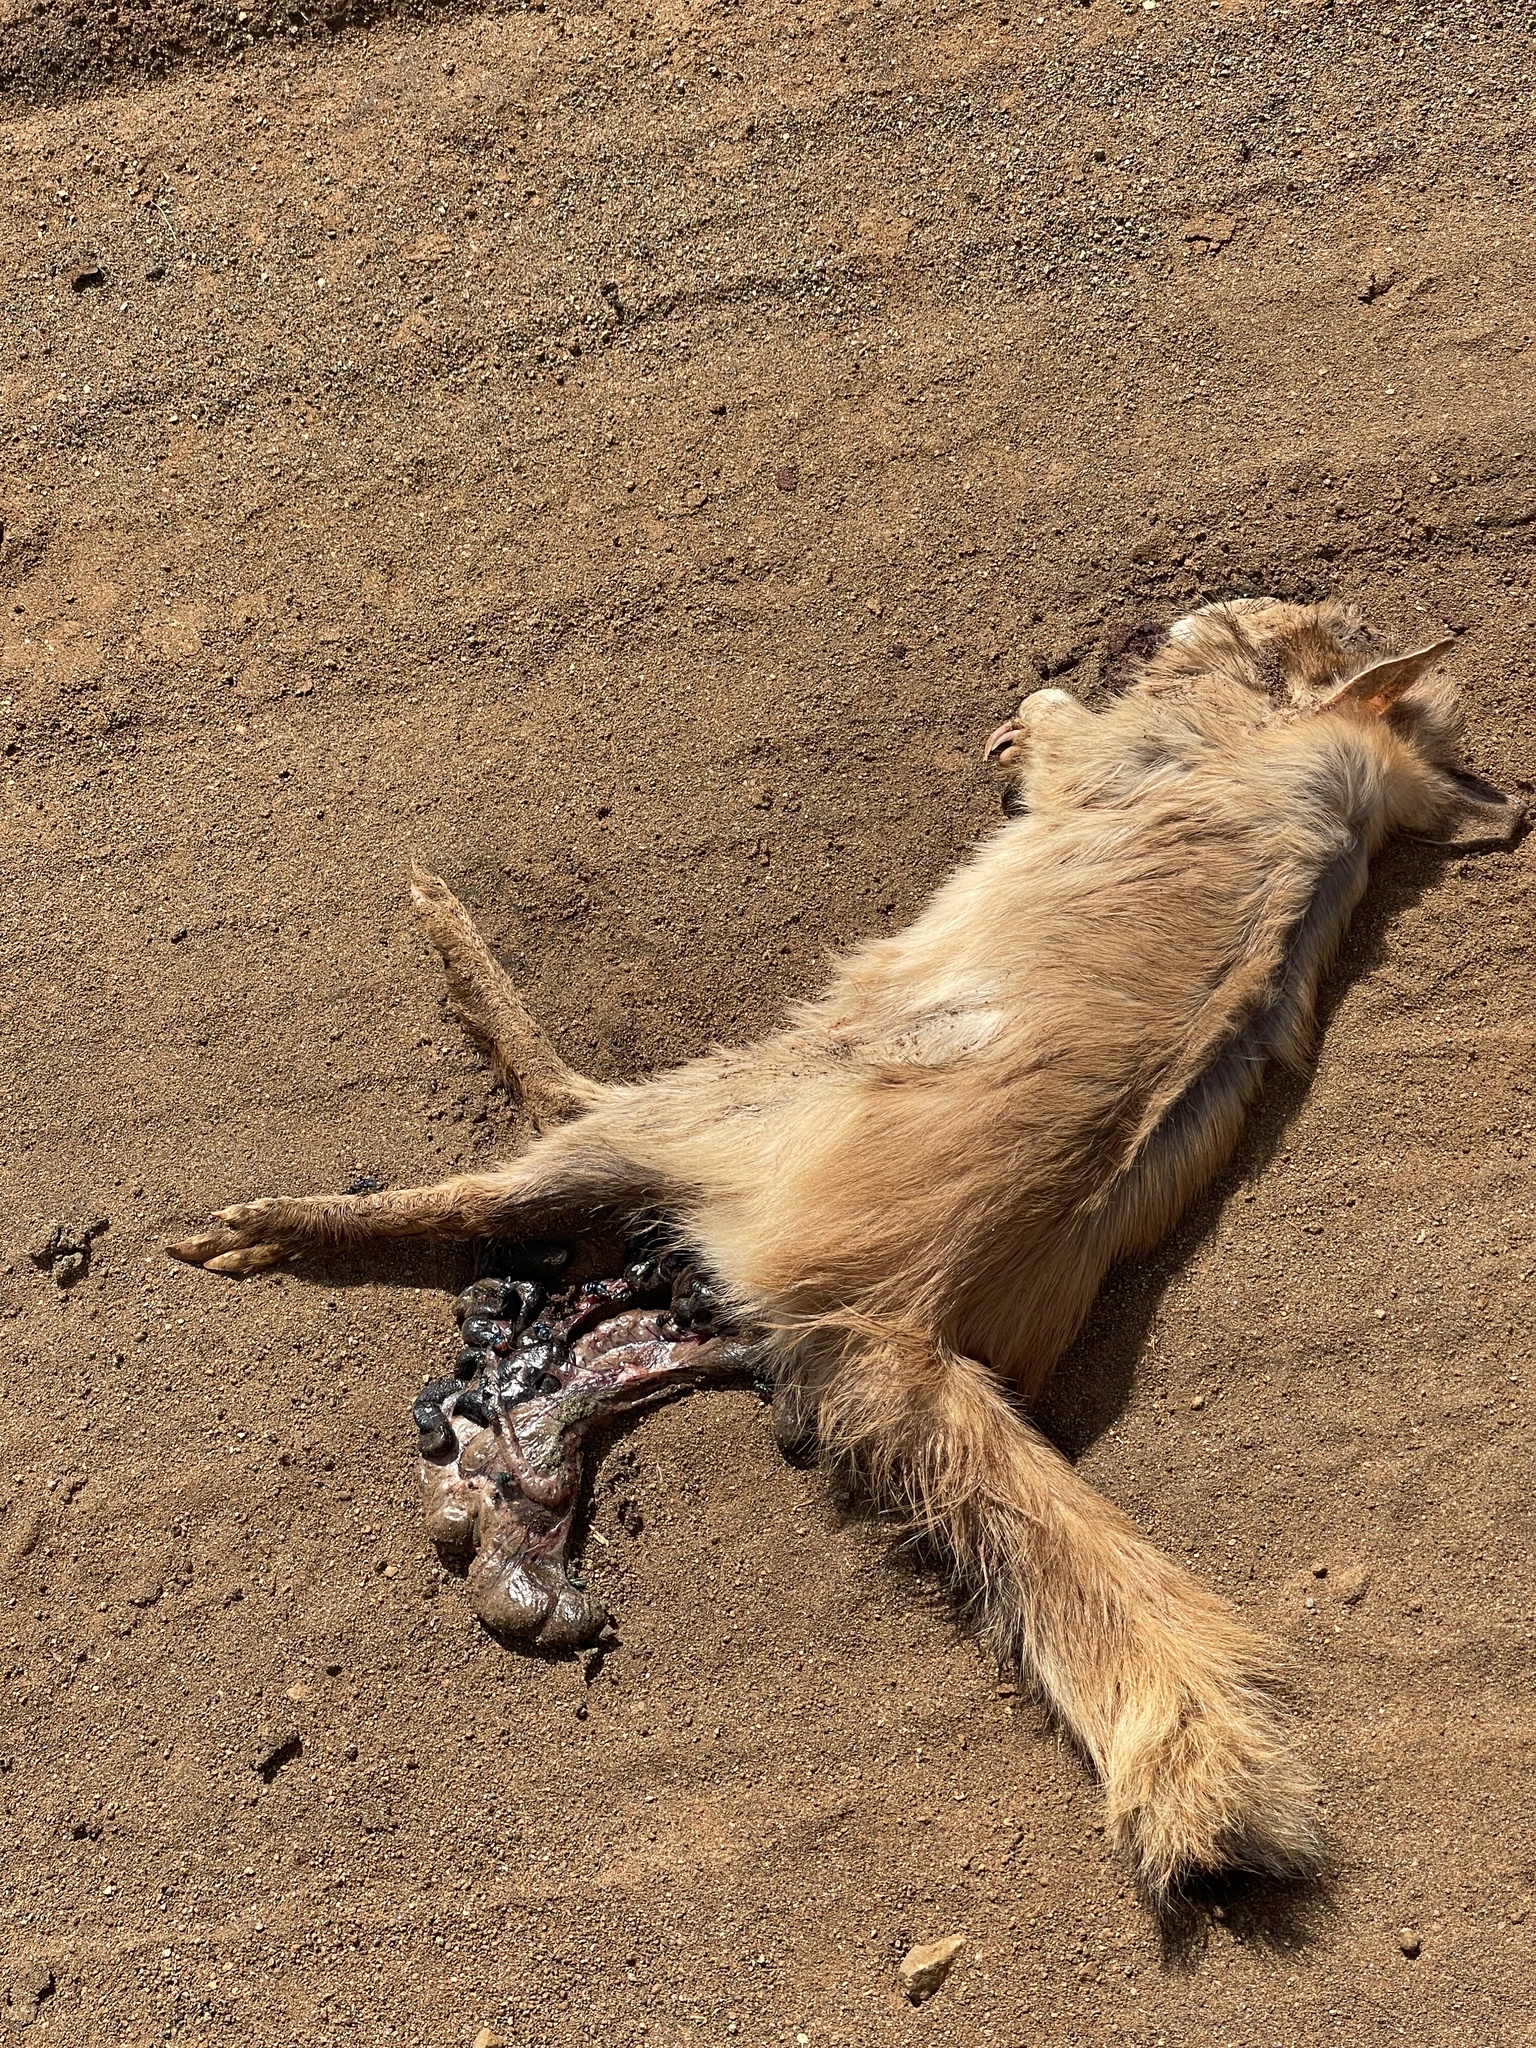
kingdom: Animalia
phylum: Chordata
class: Mammalia
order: Rodentia
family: Pedetidae
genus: Pedetes
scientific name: Pedetes capensis
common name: South african spring hare
